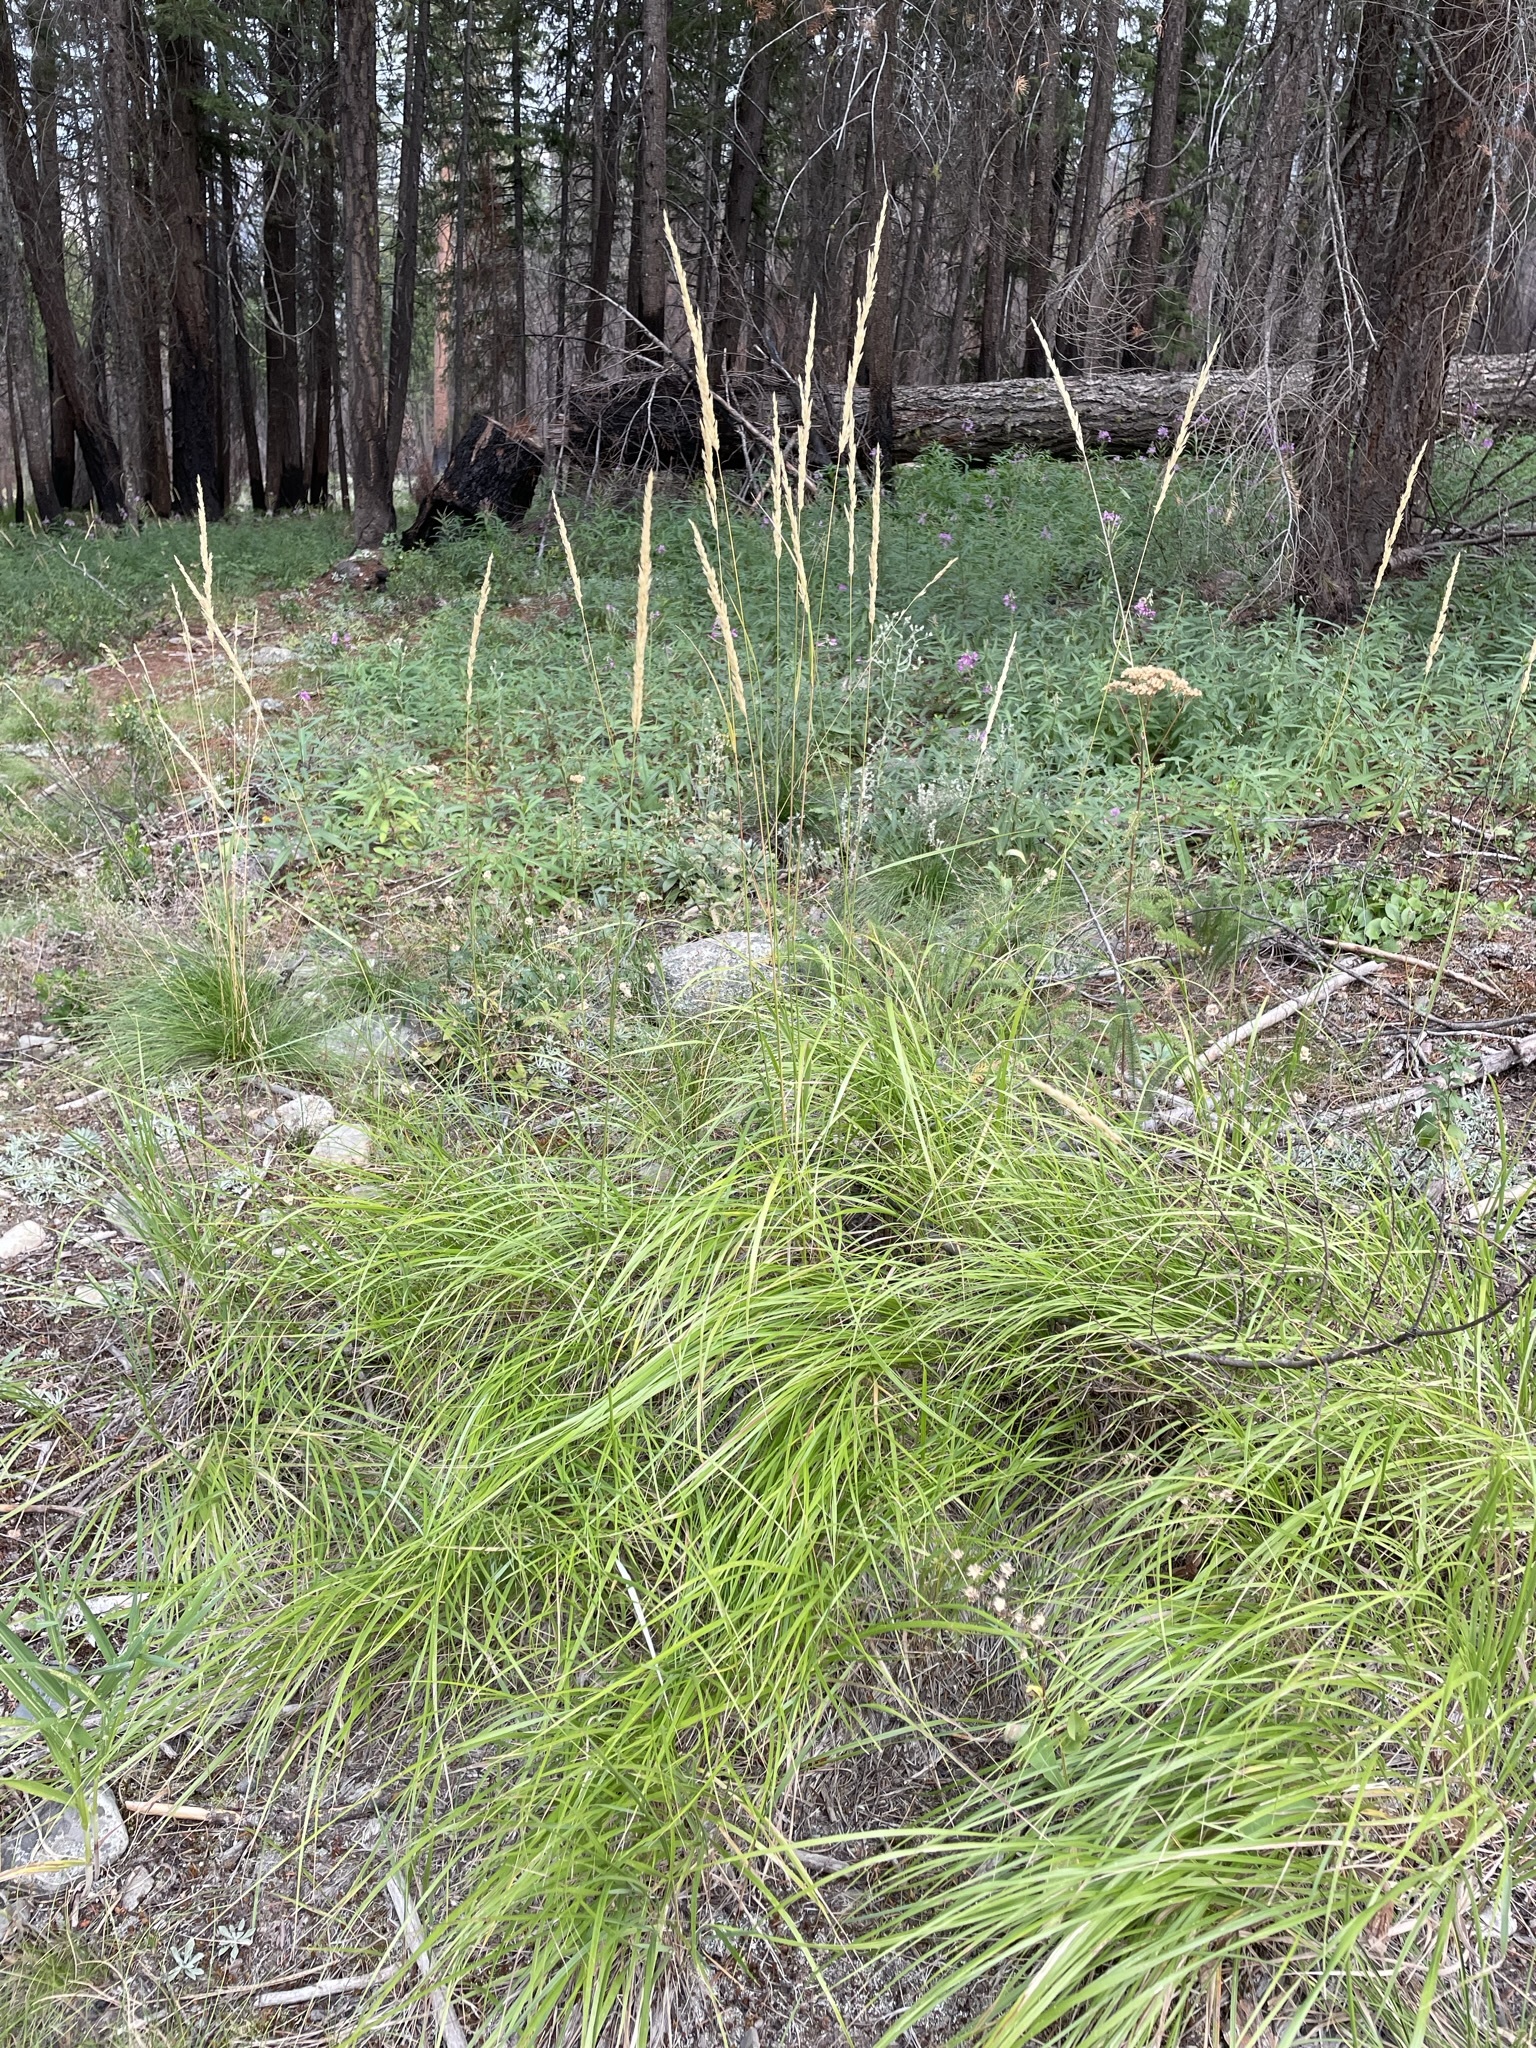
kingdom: Plantae
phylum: Tracheophyta
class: Liliopsida
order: Poales
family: Poaceae
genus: Calamagrostis
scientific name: Calamagrostis rubescens
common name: Pine grass
